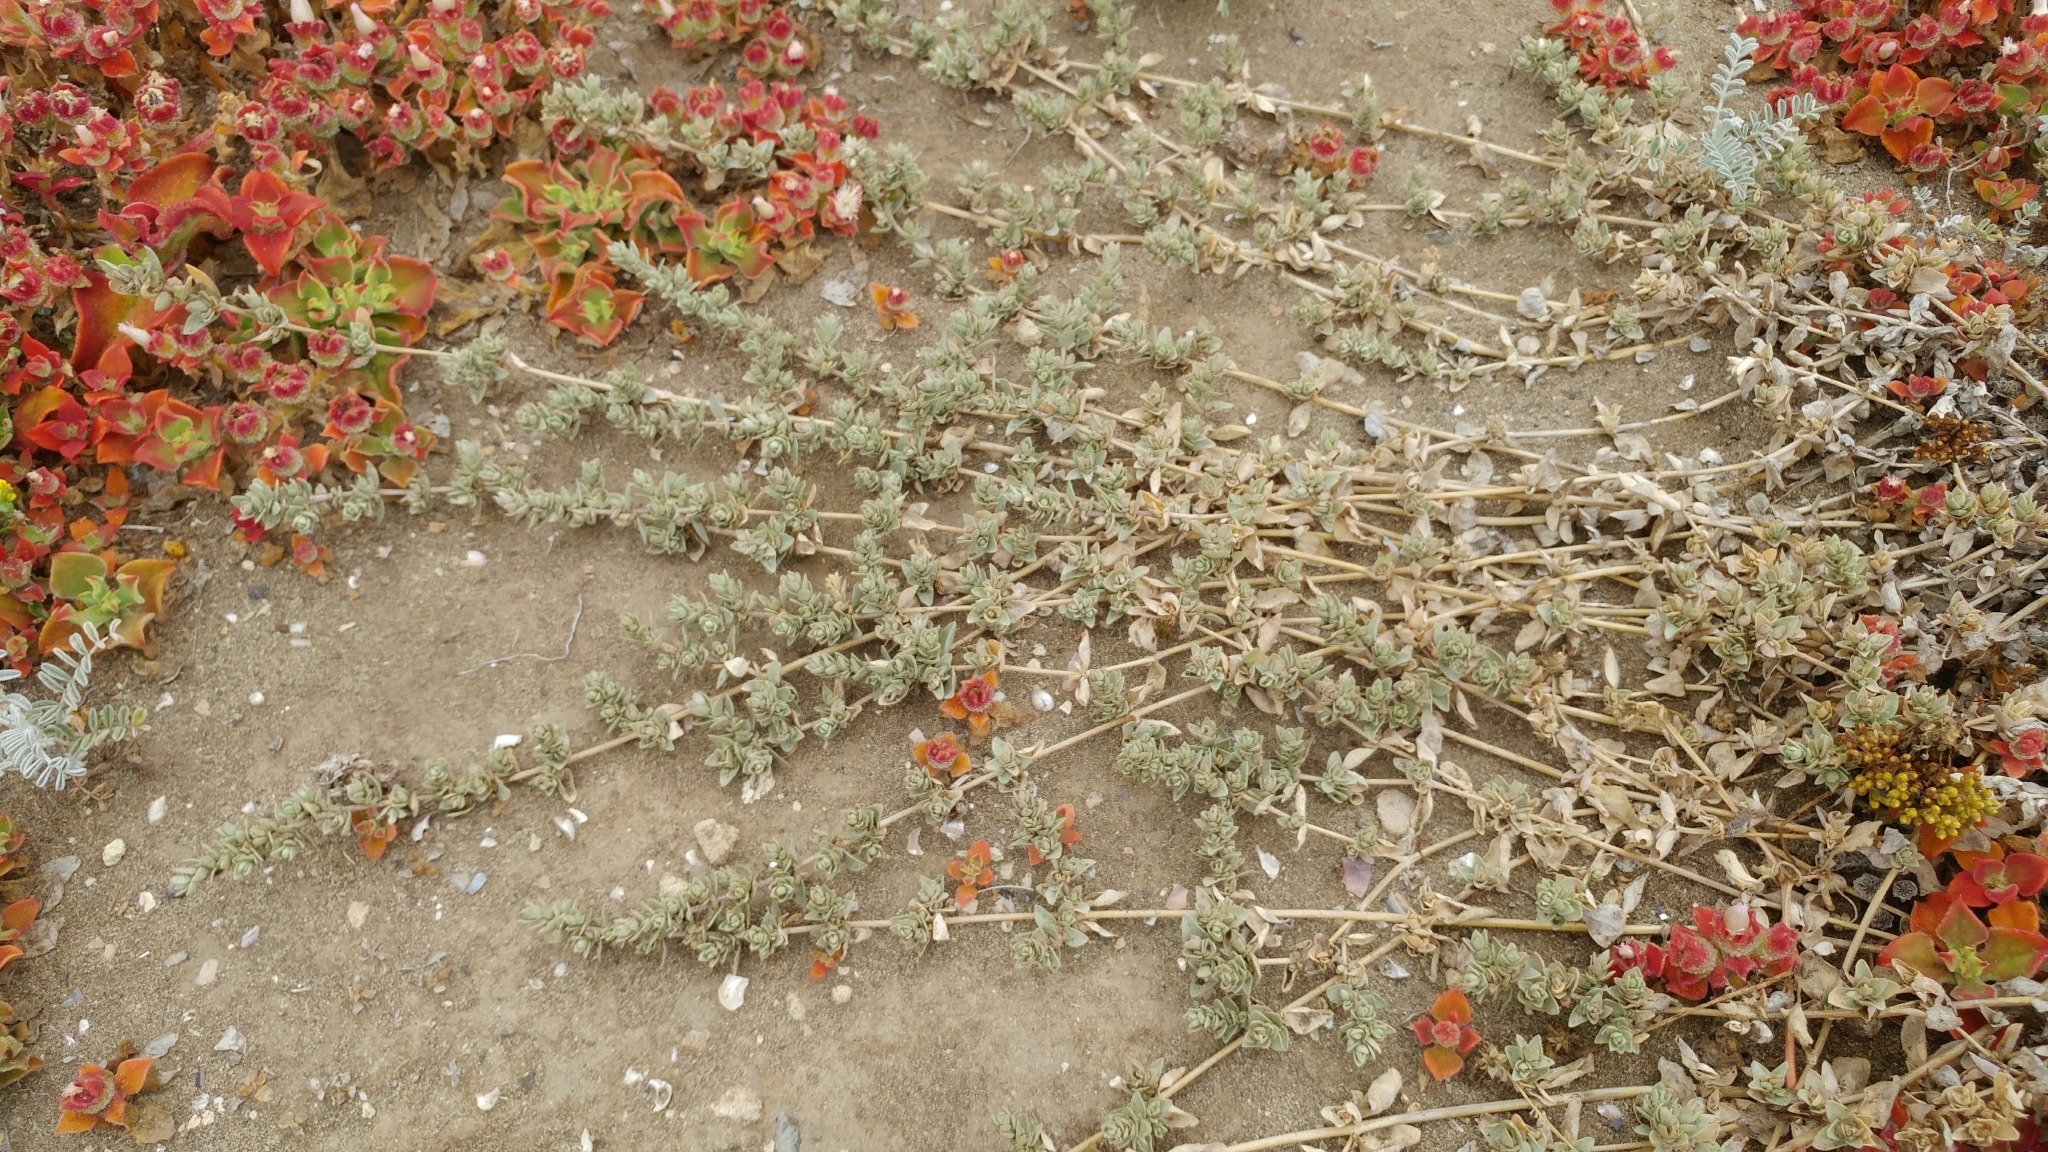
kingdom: Plantae
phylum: Tracheophyta
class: Magnoliopsida
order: Caryophyllales
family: Amaranthaceae
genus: Atriplex
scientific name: Atriplex watsonii
